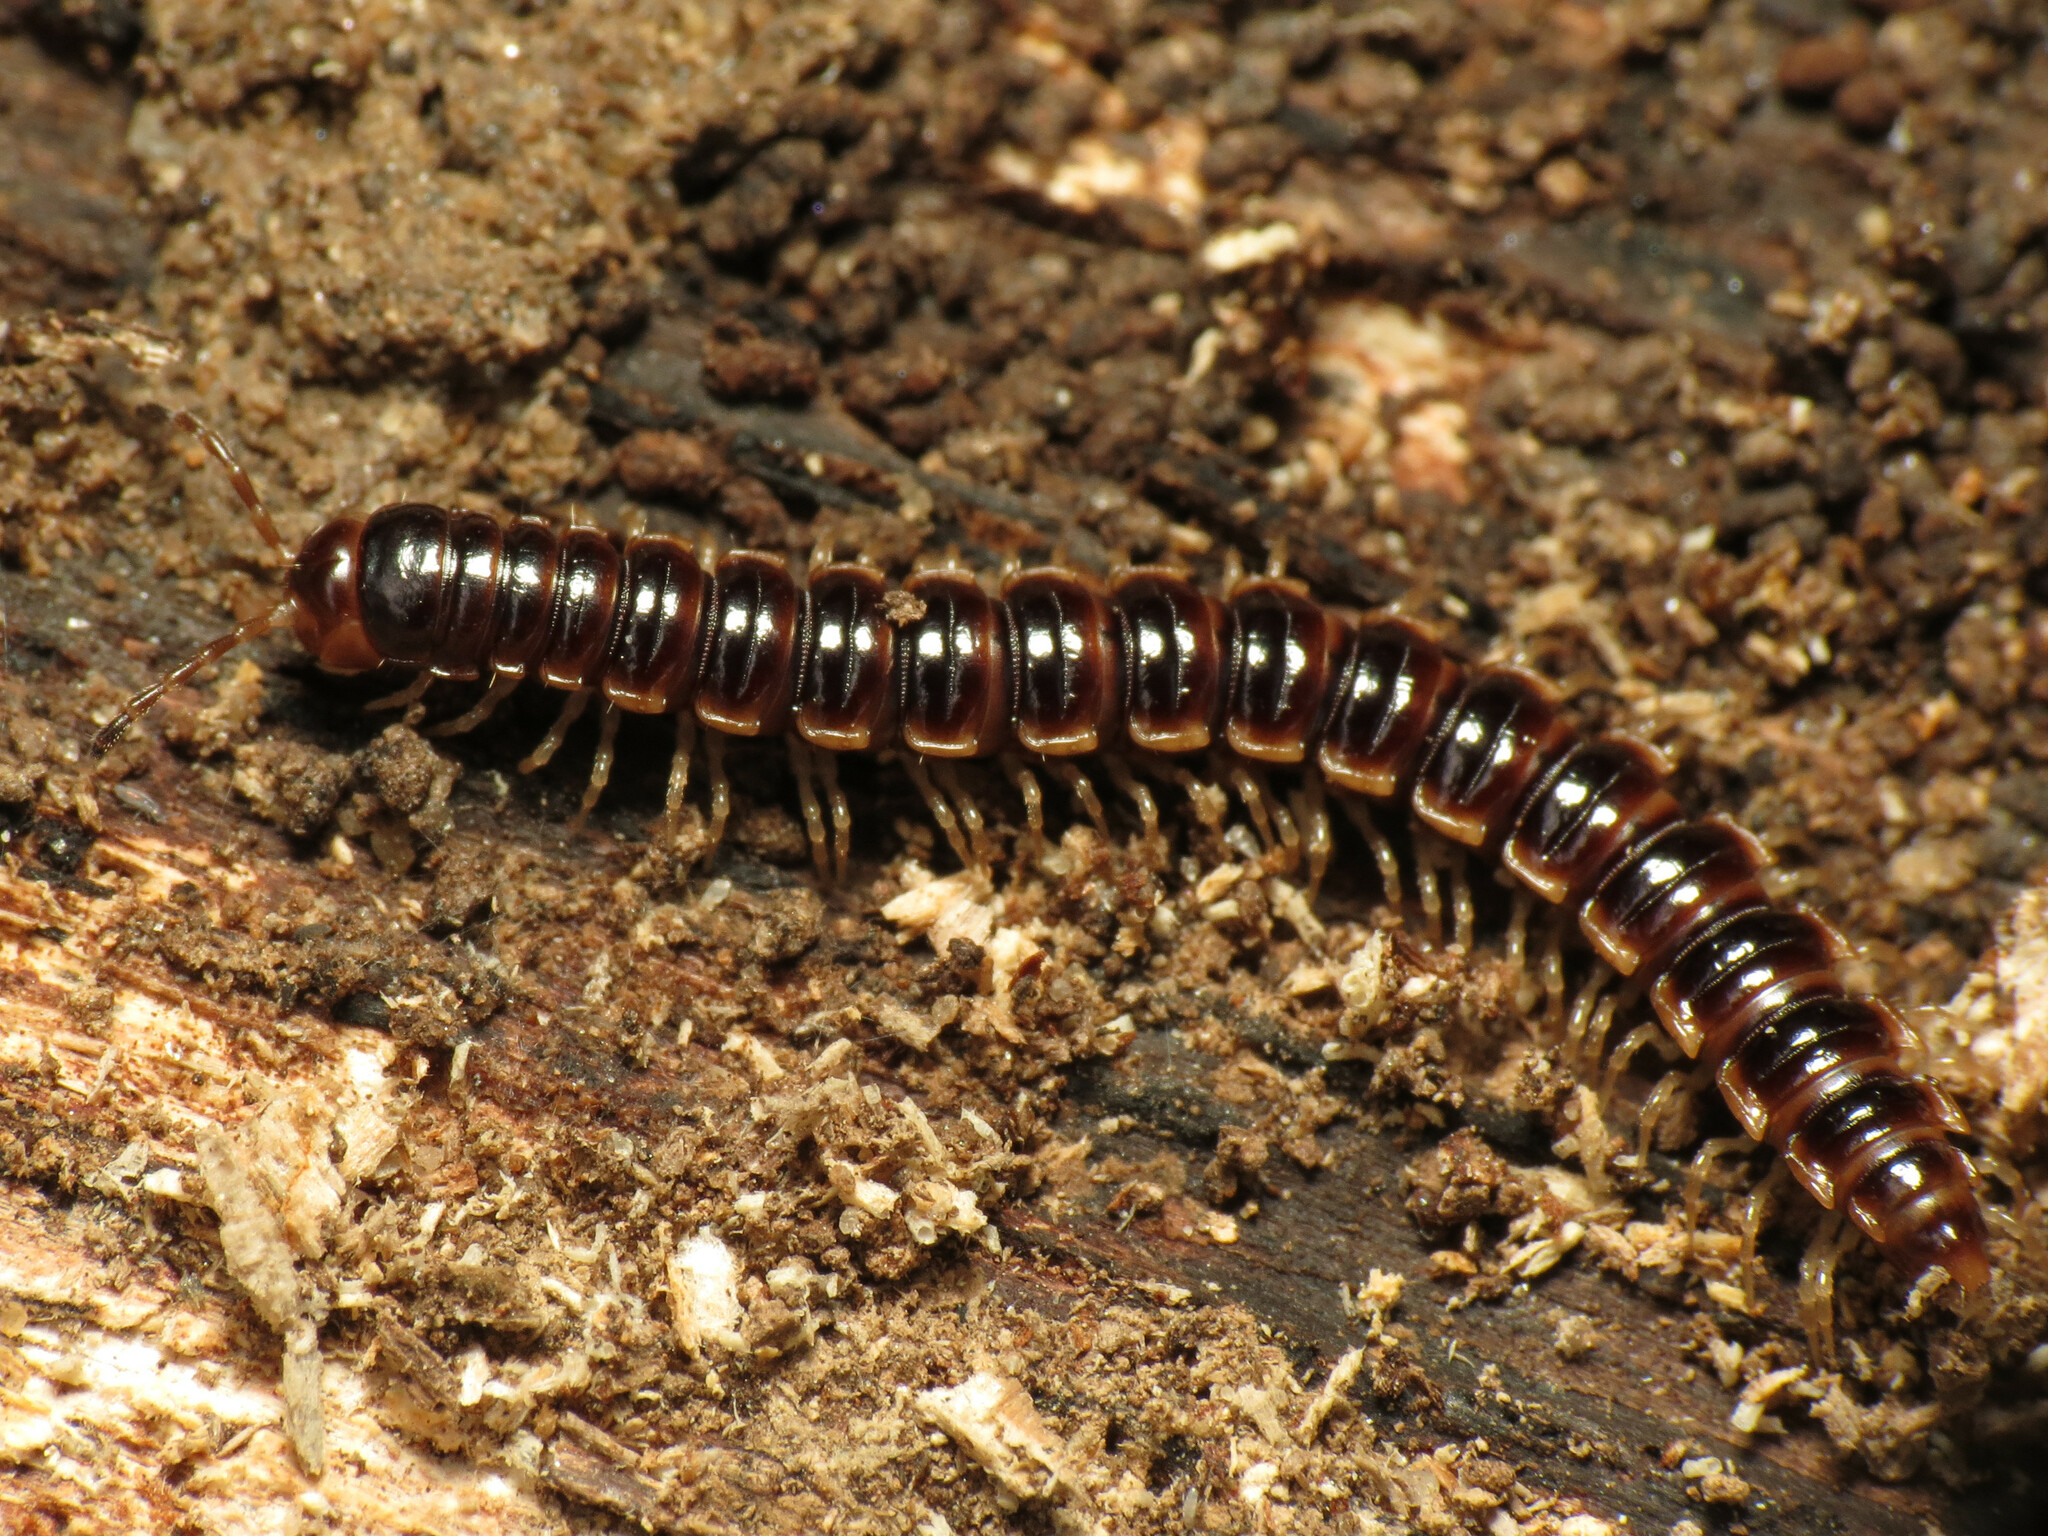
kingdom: Animalia
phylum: Arthropoda
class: Diplopoda
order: Polydesmida
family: Paradoxosomatidae
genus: Oxidus
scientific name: Oxidus gracilis
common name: Greenhouse millipede
